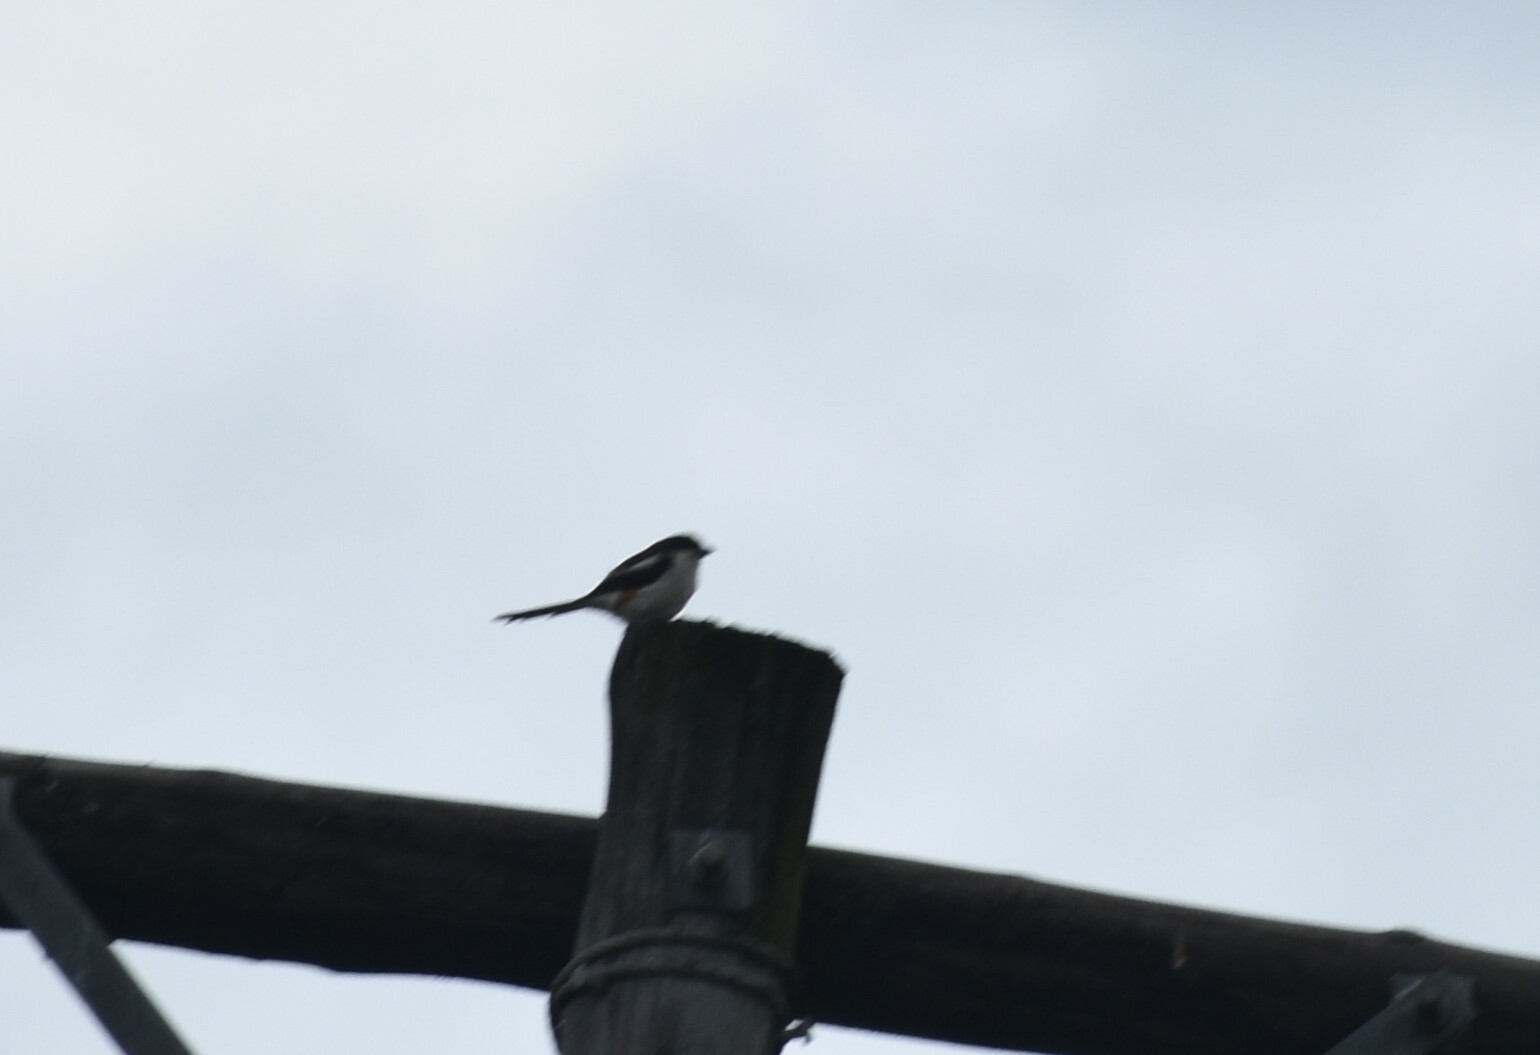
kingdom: Animalia
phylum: Chordata
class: Aves
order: Passeriformes
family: Laniidae
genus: Lanius
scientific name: Lanius collaris
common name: Southern fiscal
